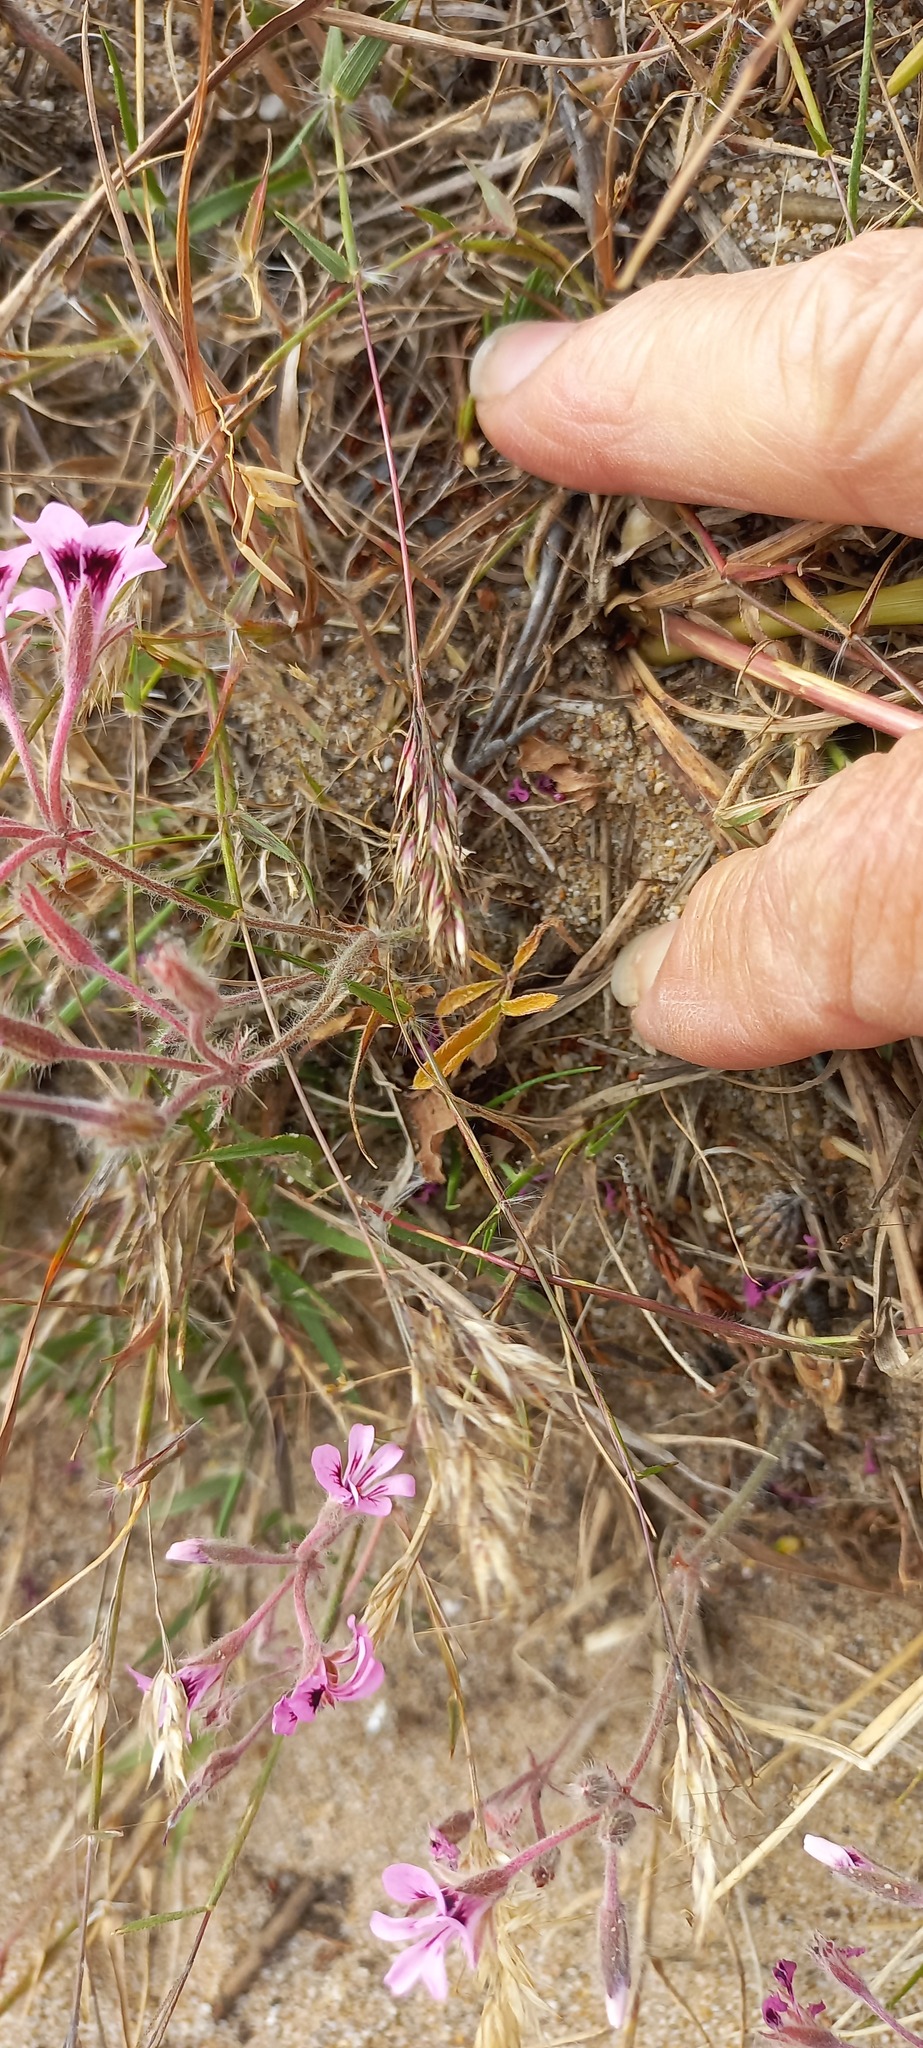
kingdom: Plantae
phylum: Tracheophyta
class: Magnoliopsida
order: Geraniales
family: Geraniaceae
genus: Pelargonium
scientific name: Pelargonium psammophilum
